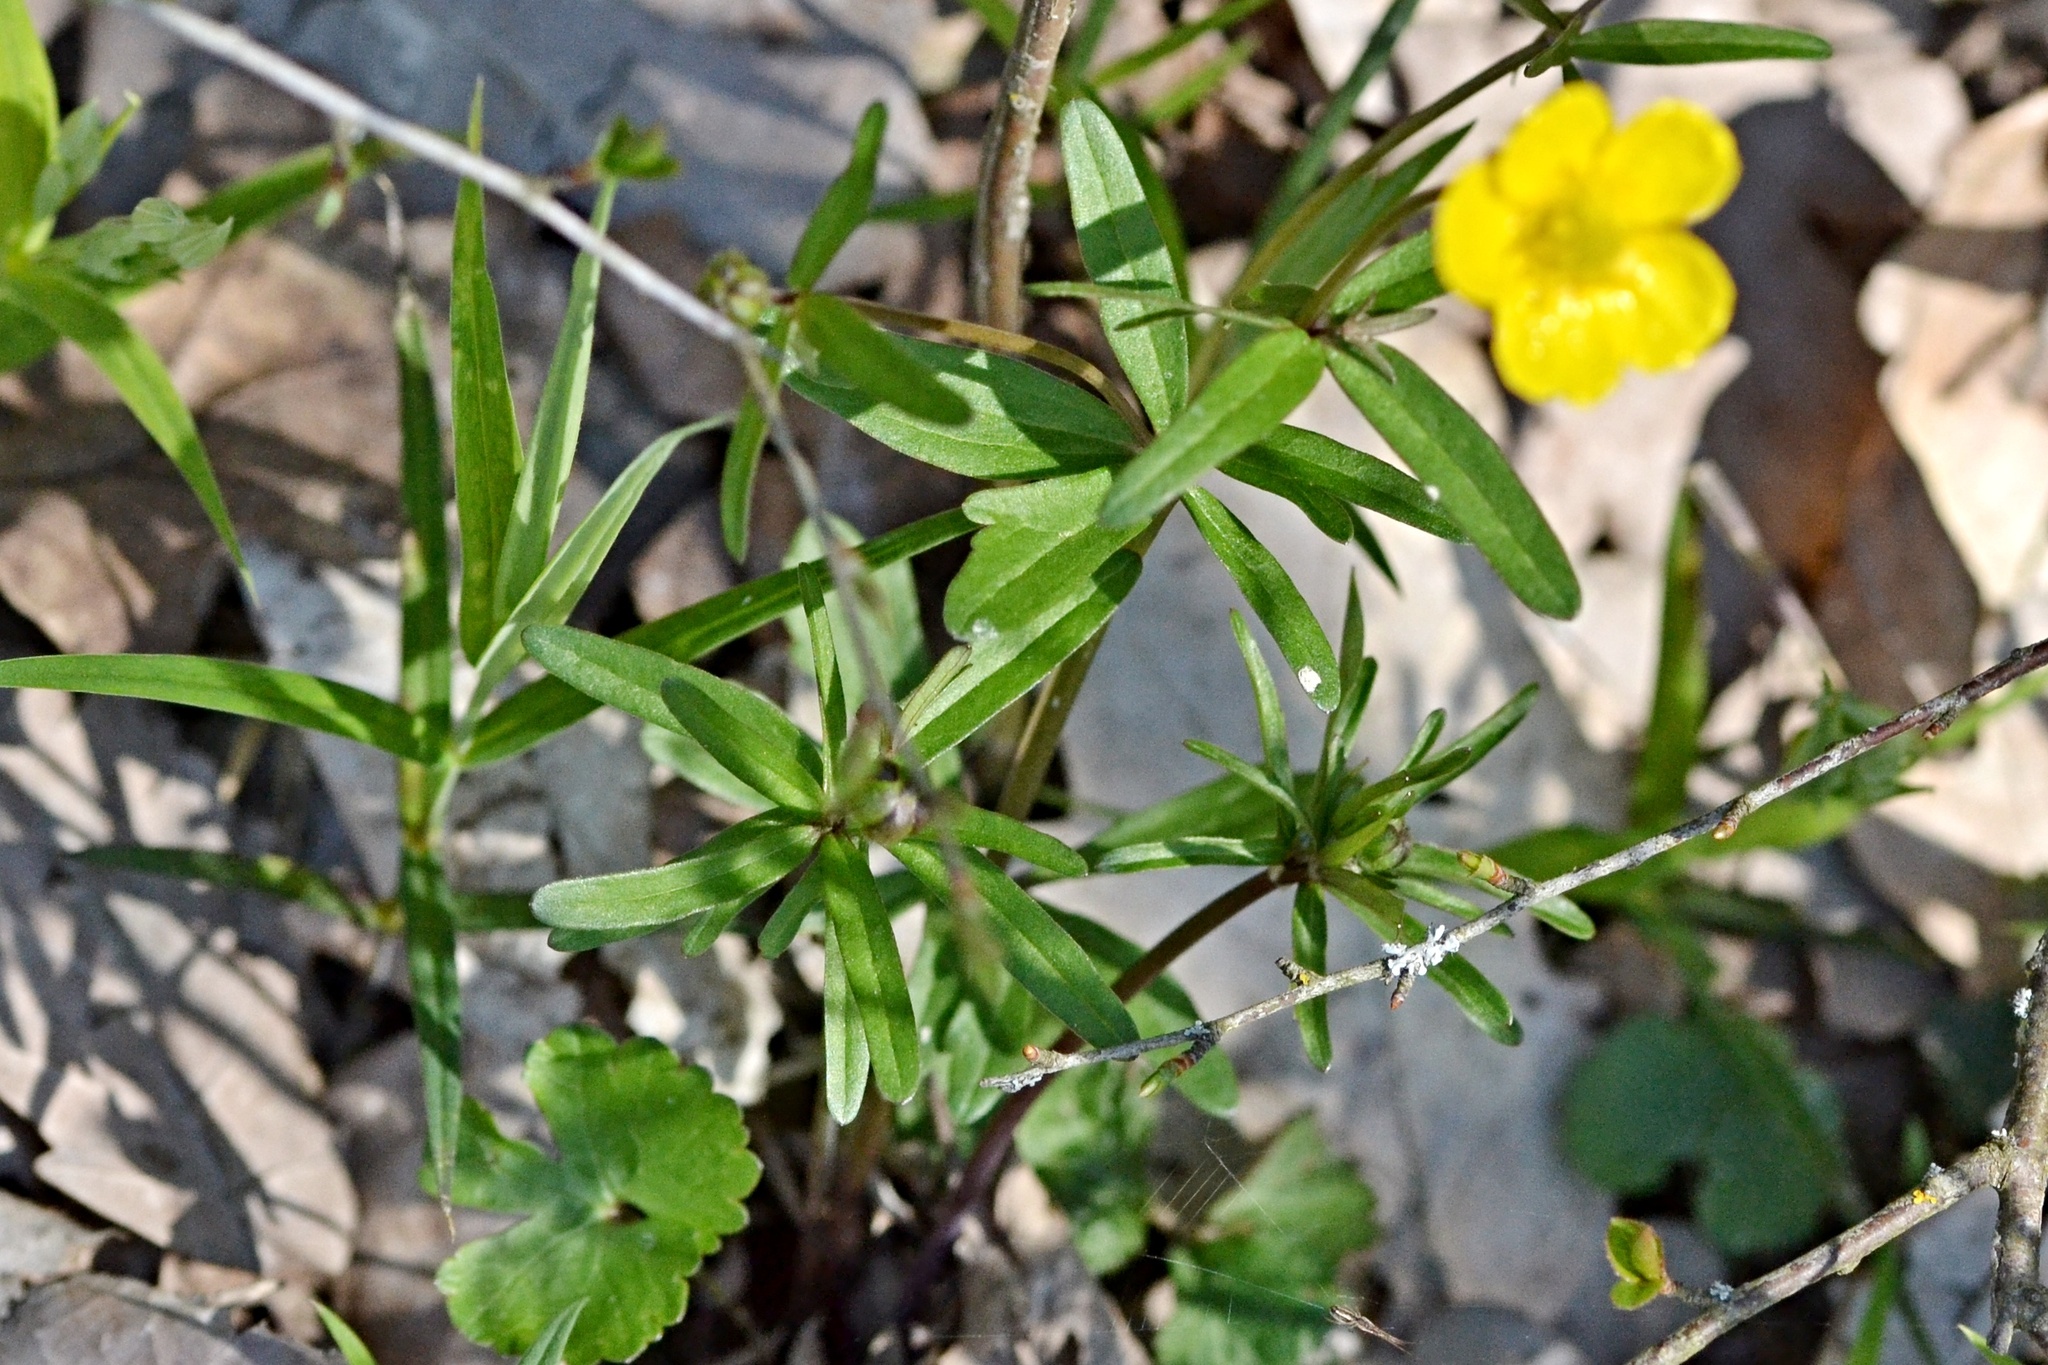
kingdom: Plantae
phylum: Tracheophyta
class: Magnoliopsida
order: Ranunculales
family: Ranunculaceae
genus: Ranunculus
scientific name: Ranunculus auricomus
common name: Goldilocks buttercup
